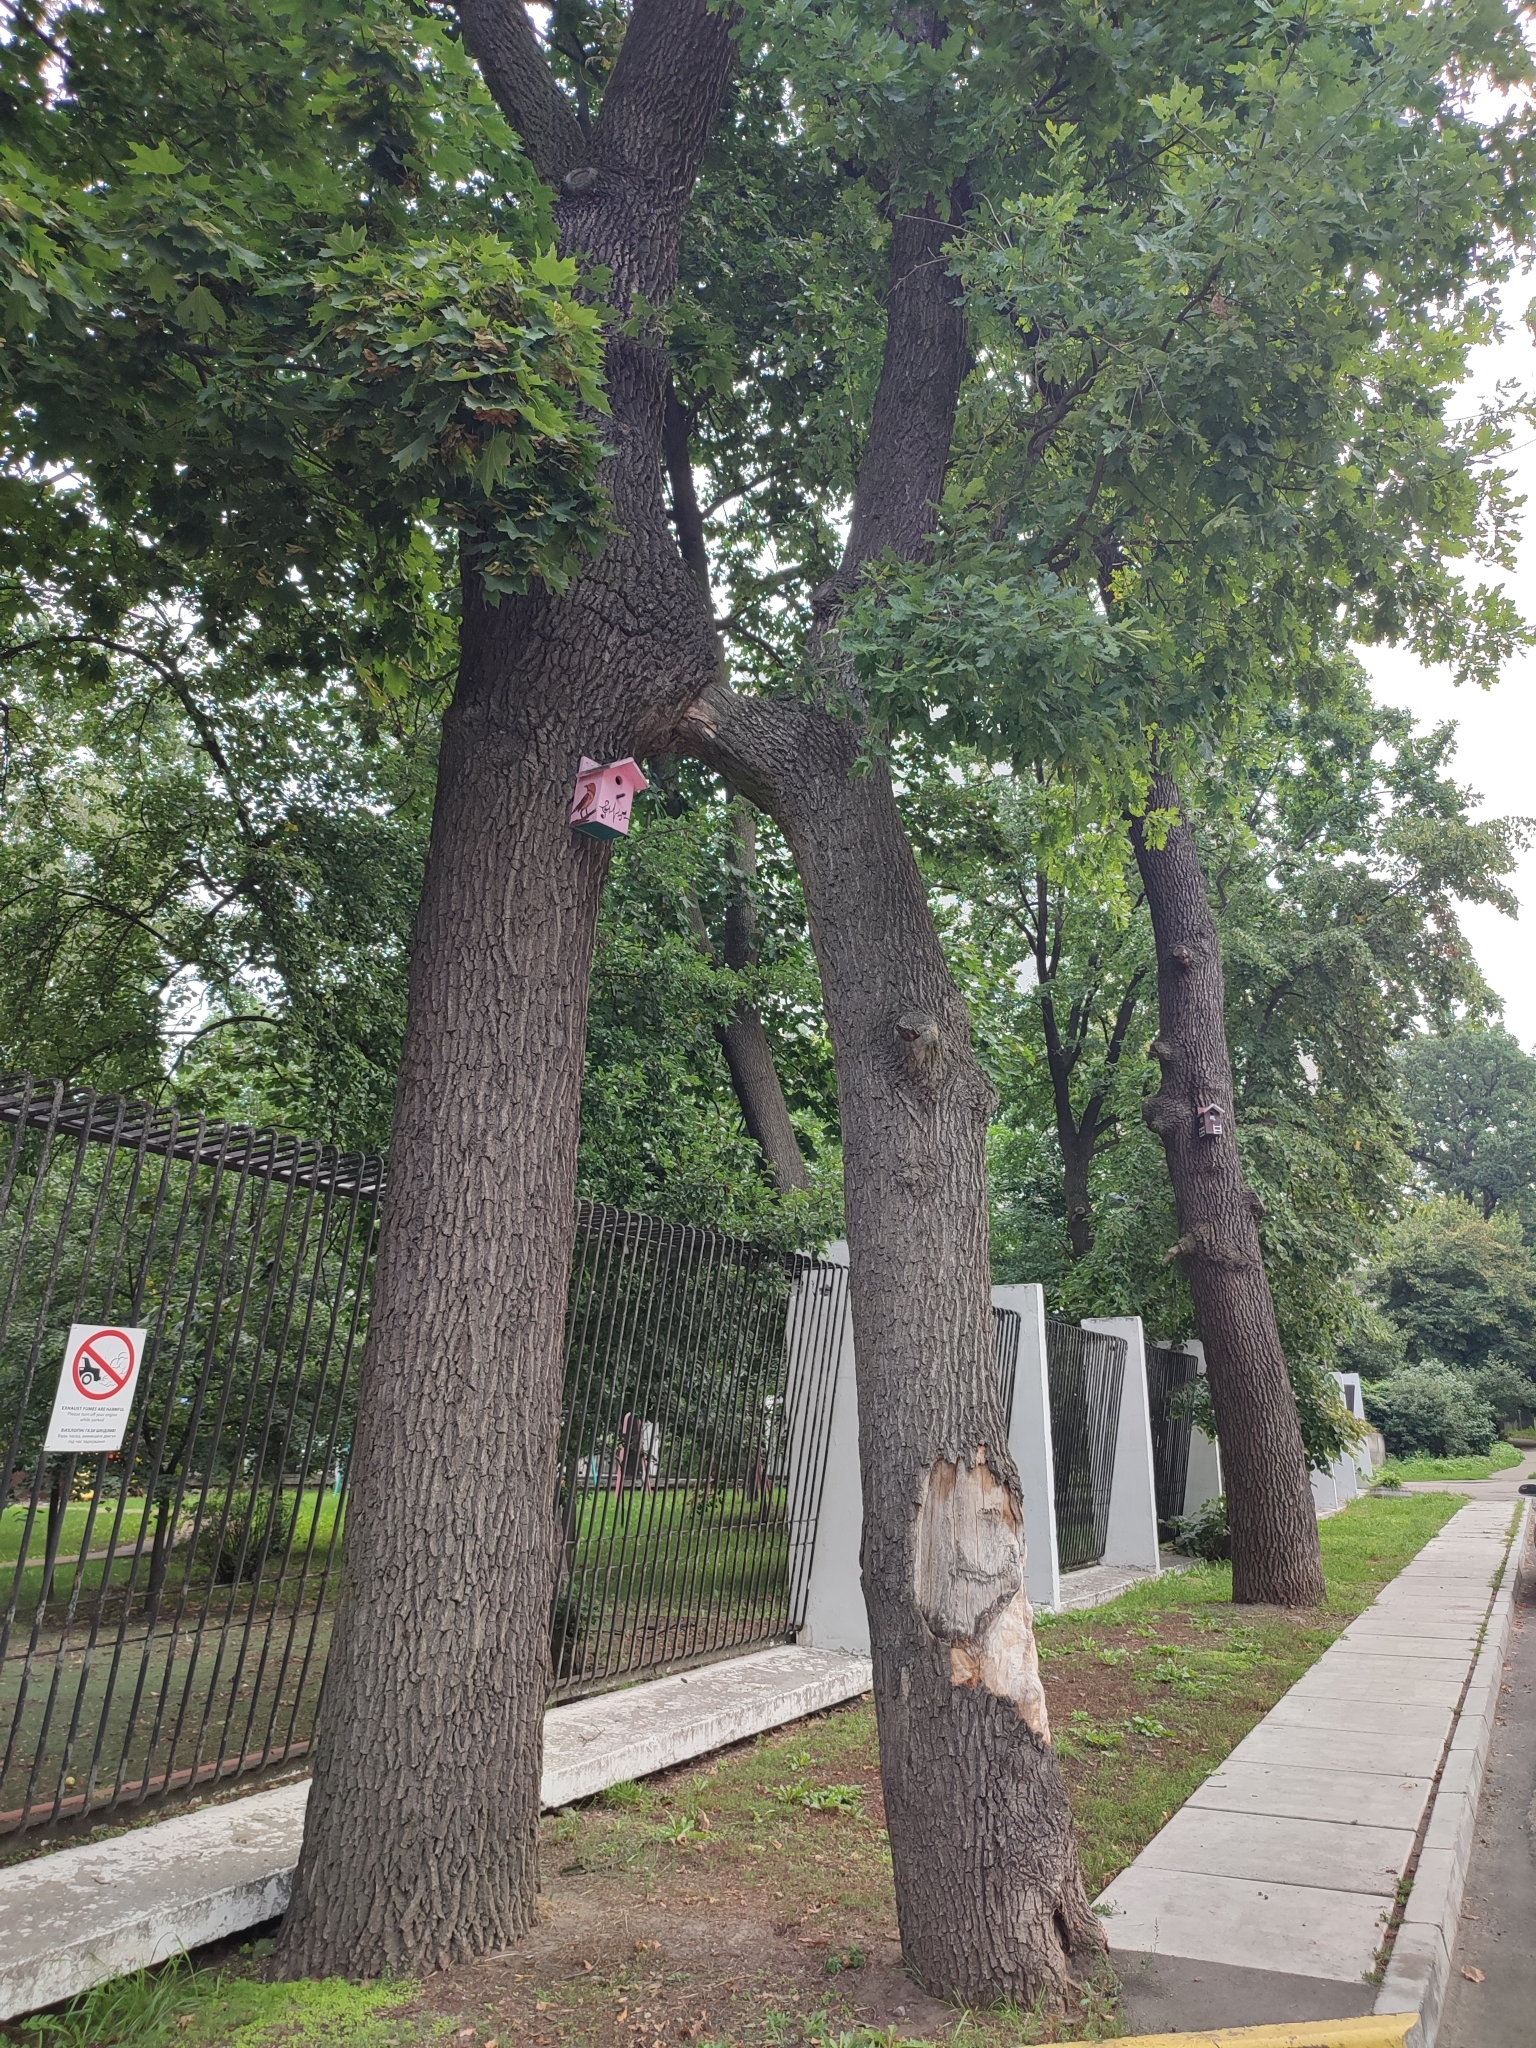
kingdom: Plantae
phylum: Tracheophyta
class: Magnoliopsida
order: Fagales
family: Fagaceae
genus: Quercus
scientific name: Quercus robur
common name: Pedunculate oak
